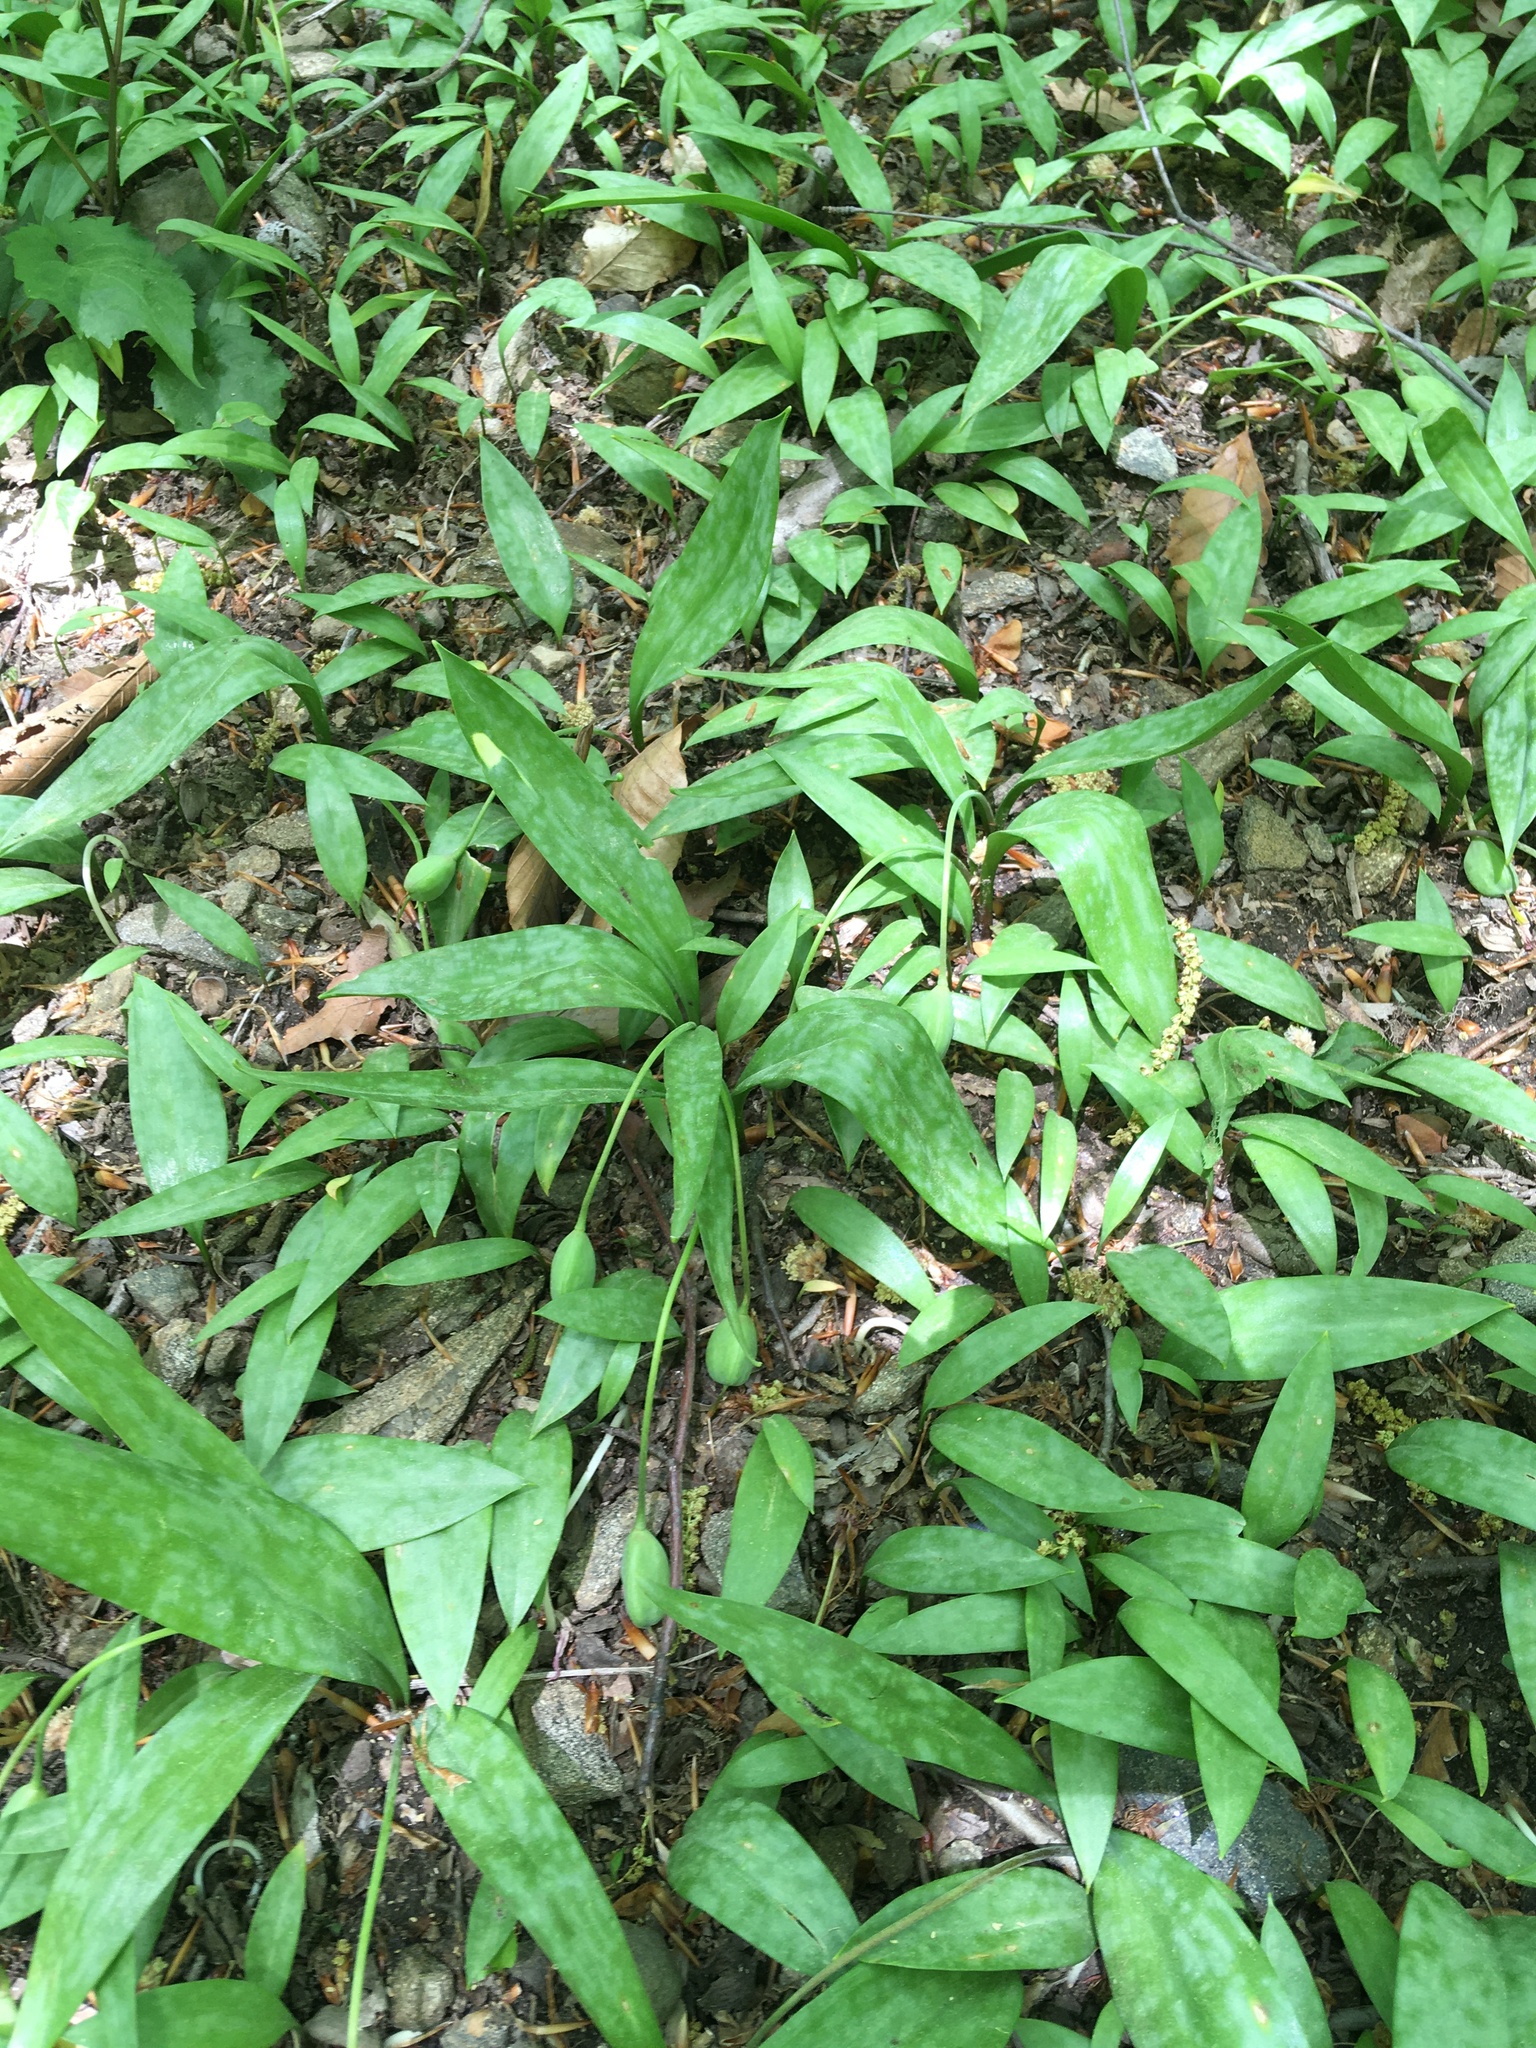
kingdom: Plantae
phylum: Tracheophyta
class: Liliopsida
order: Liliales
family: Liliaceae
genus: Erythronium
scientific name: Erythronium americanum
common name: Yellow adder's-tongue
